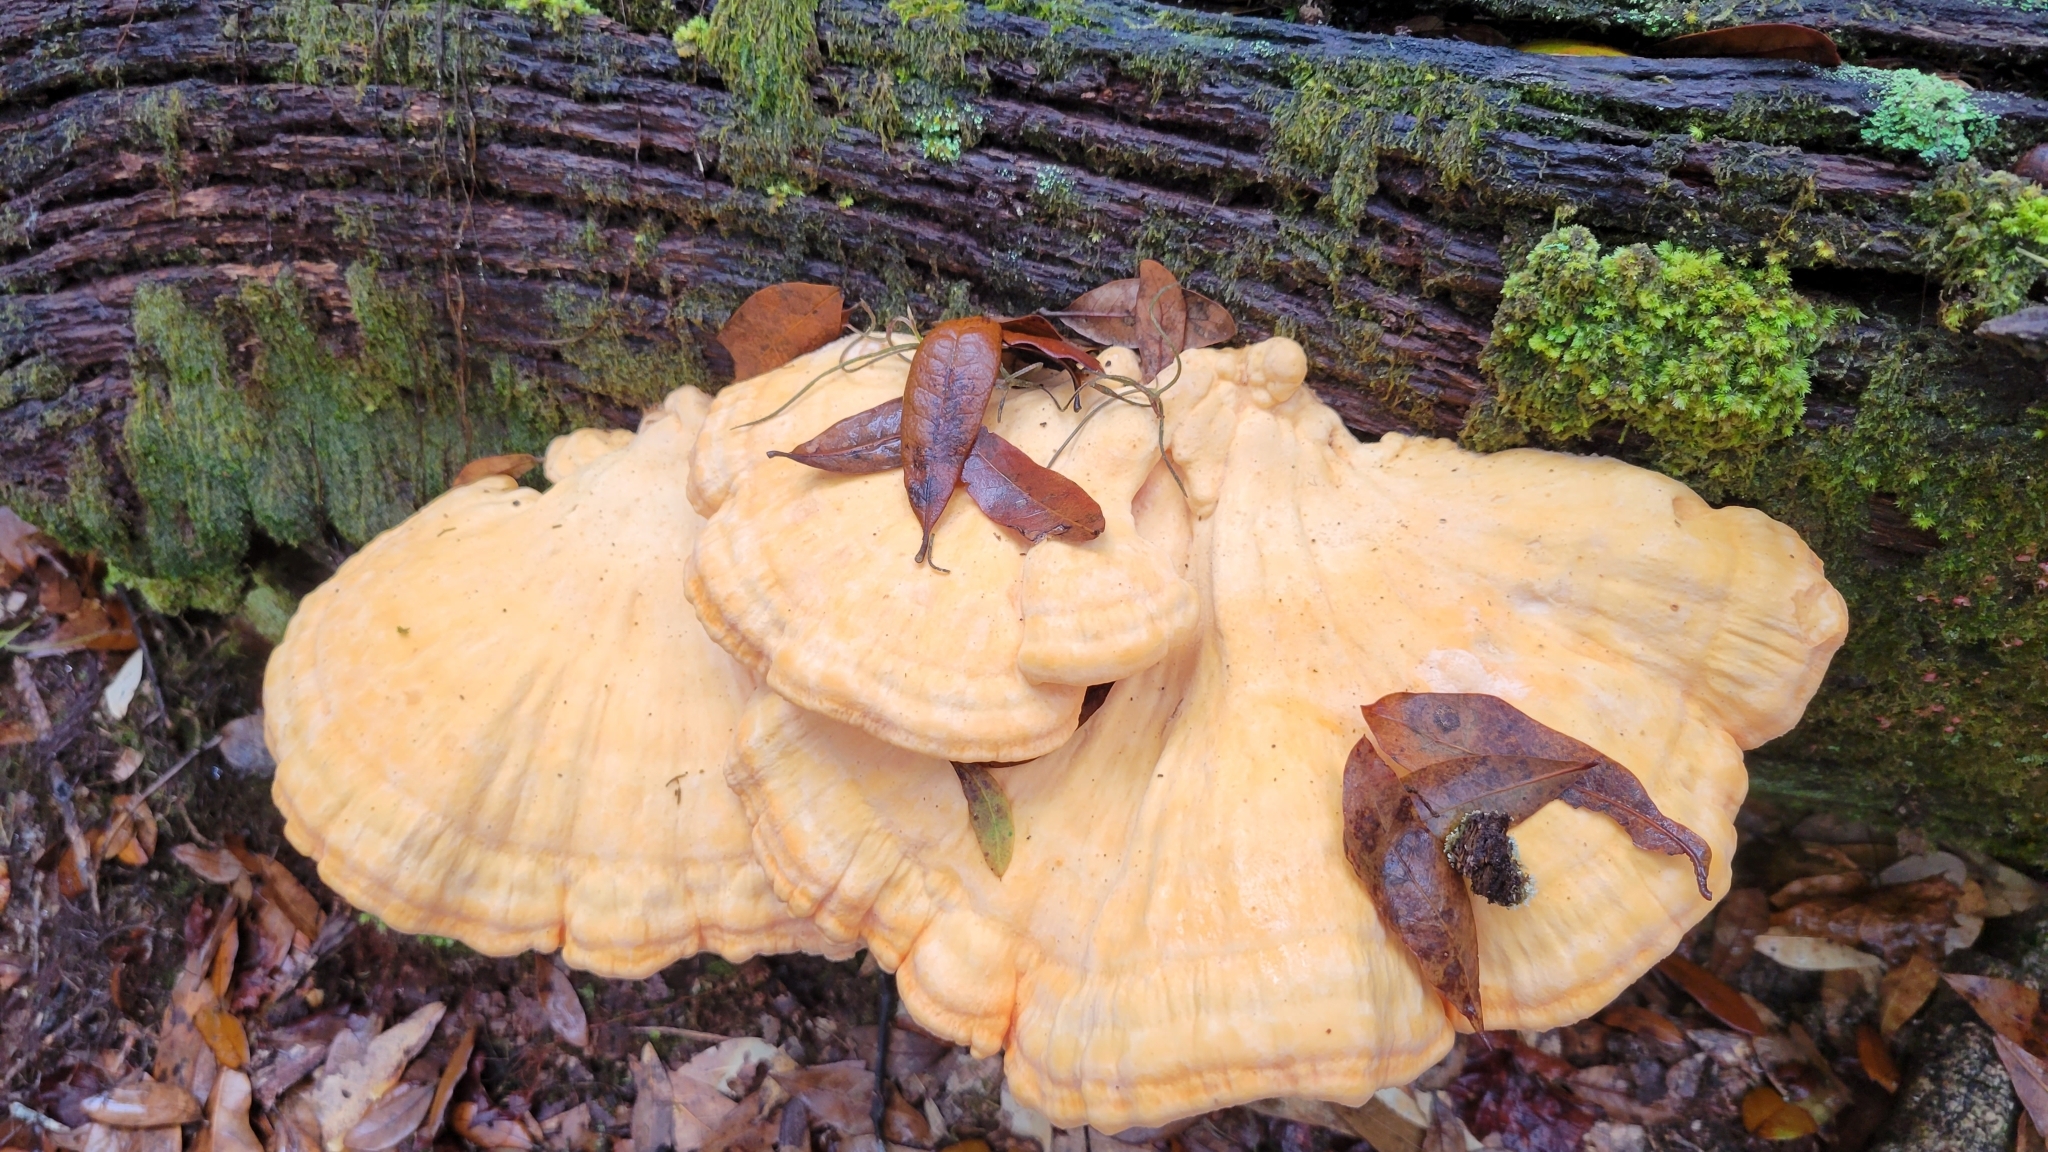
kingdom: Fungi
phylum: Basidiomycota
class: Agaricomycetes
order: Polyporales
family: Laetiporaceae
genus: Laetiporus
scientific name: Laetiporus gilbertsonii
